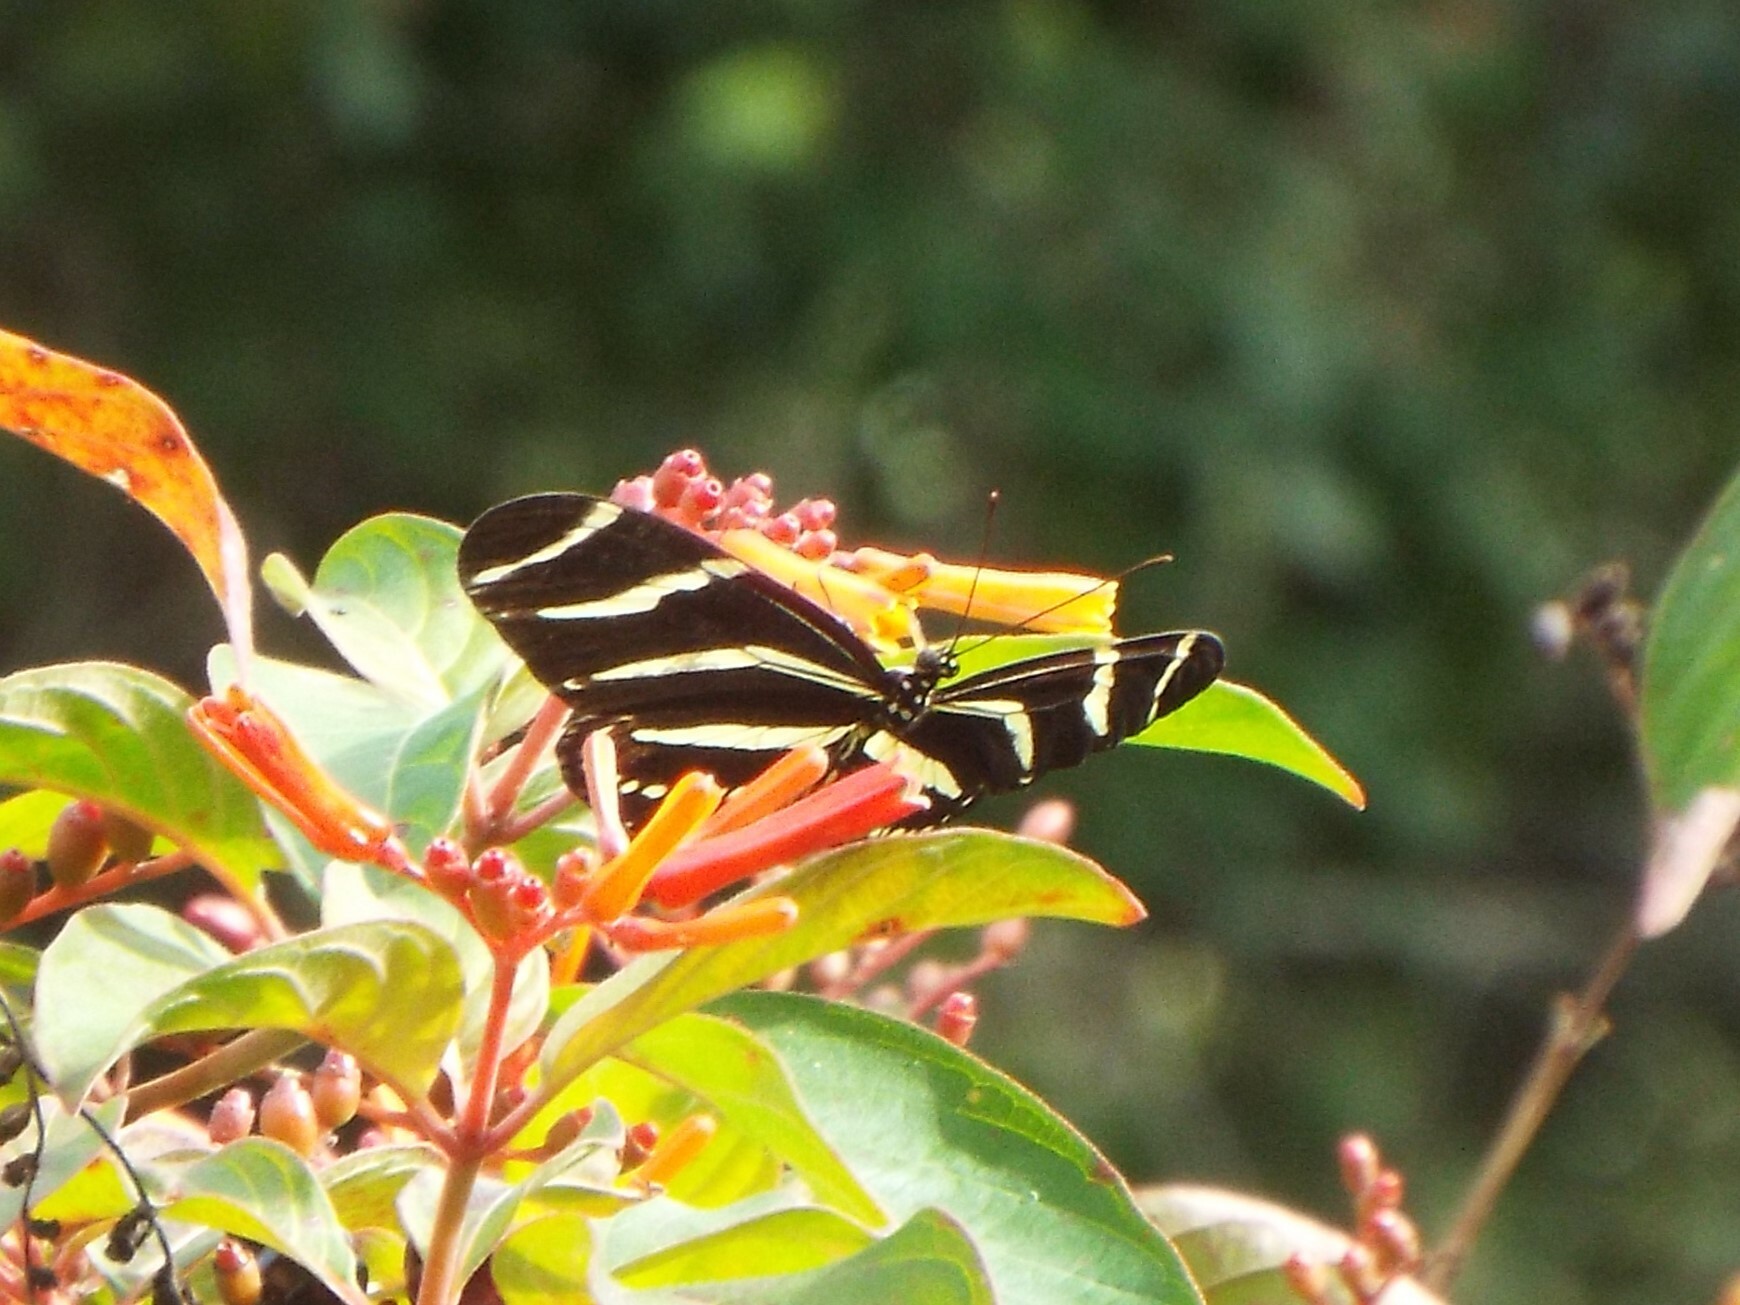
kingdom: Animalia
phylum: Arthropoda
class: Insecta
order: Lepidoptera
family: Nymphalidae
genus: Heliconius
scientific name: Heliconius charithonia
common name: Zebra long wing
